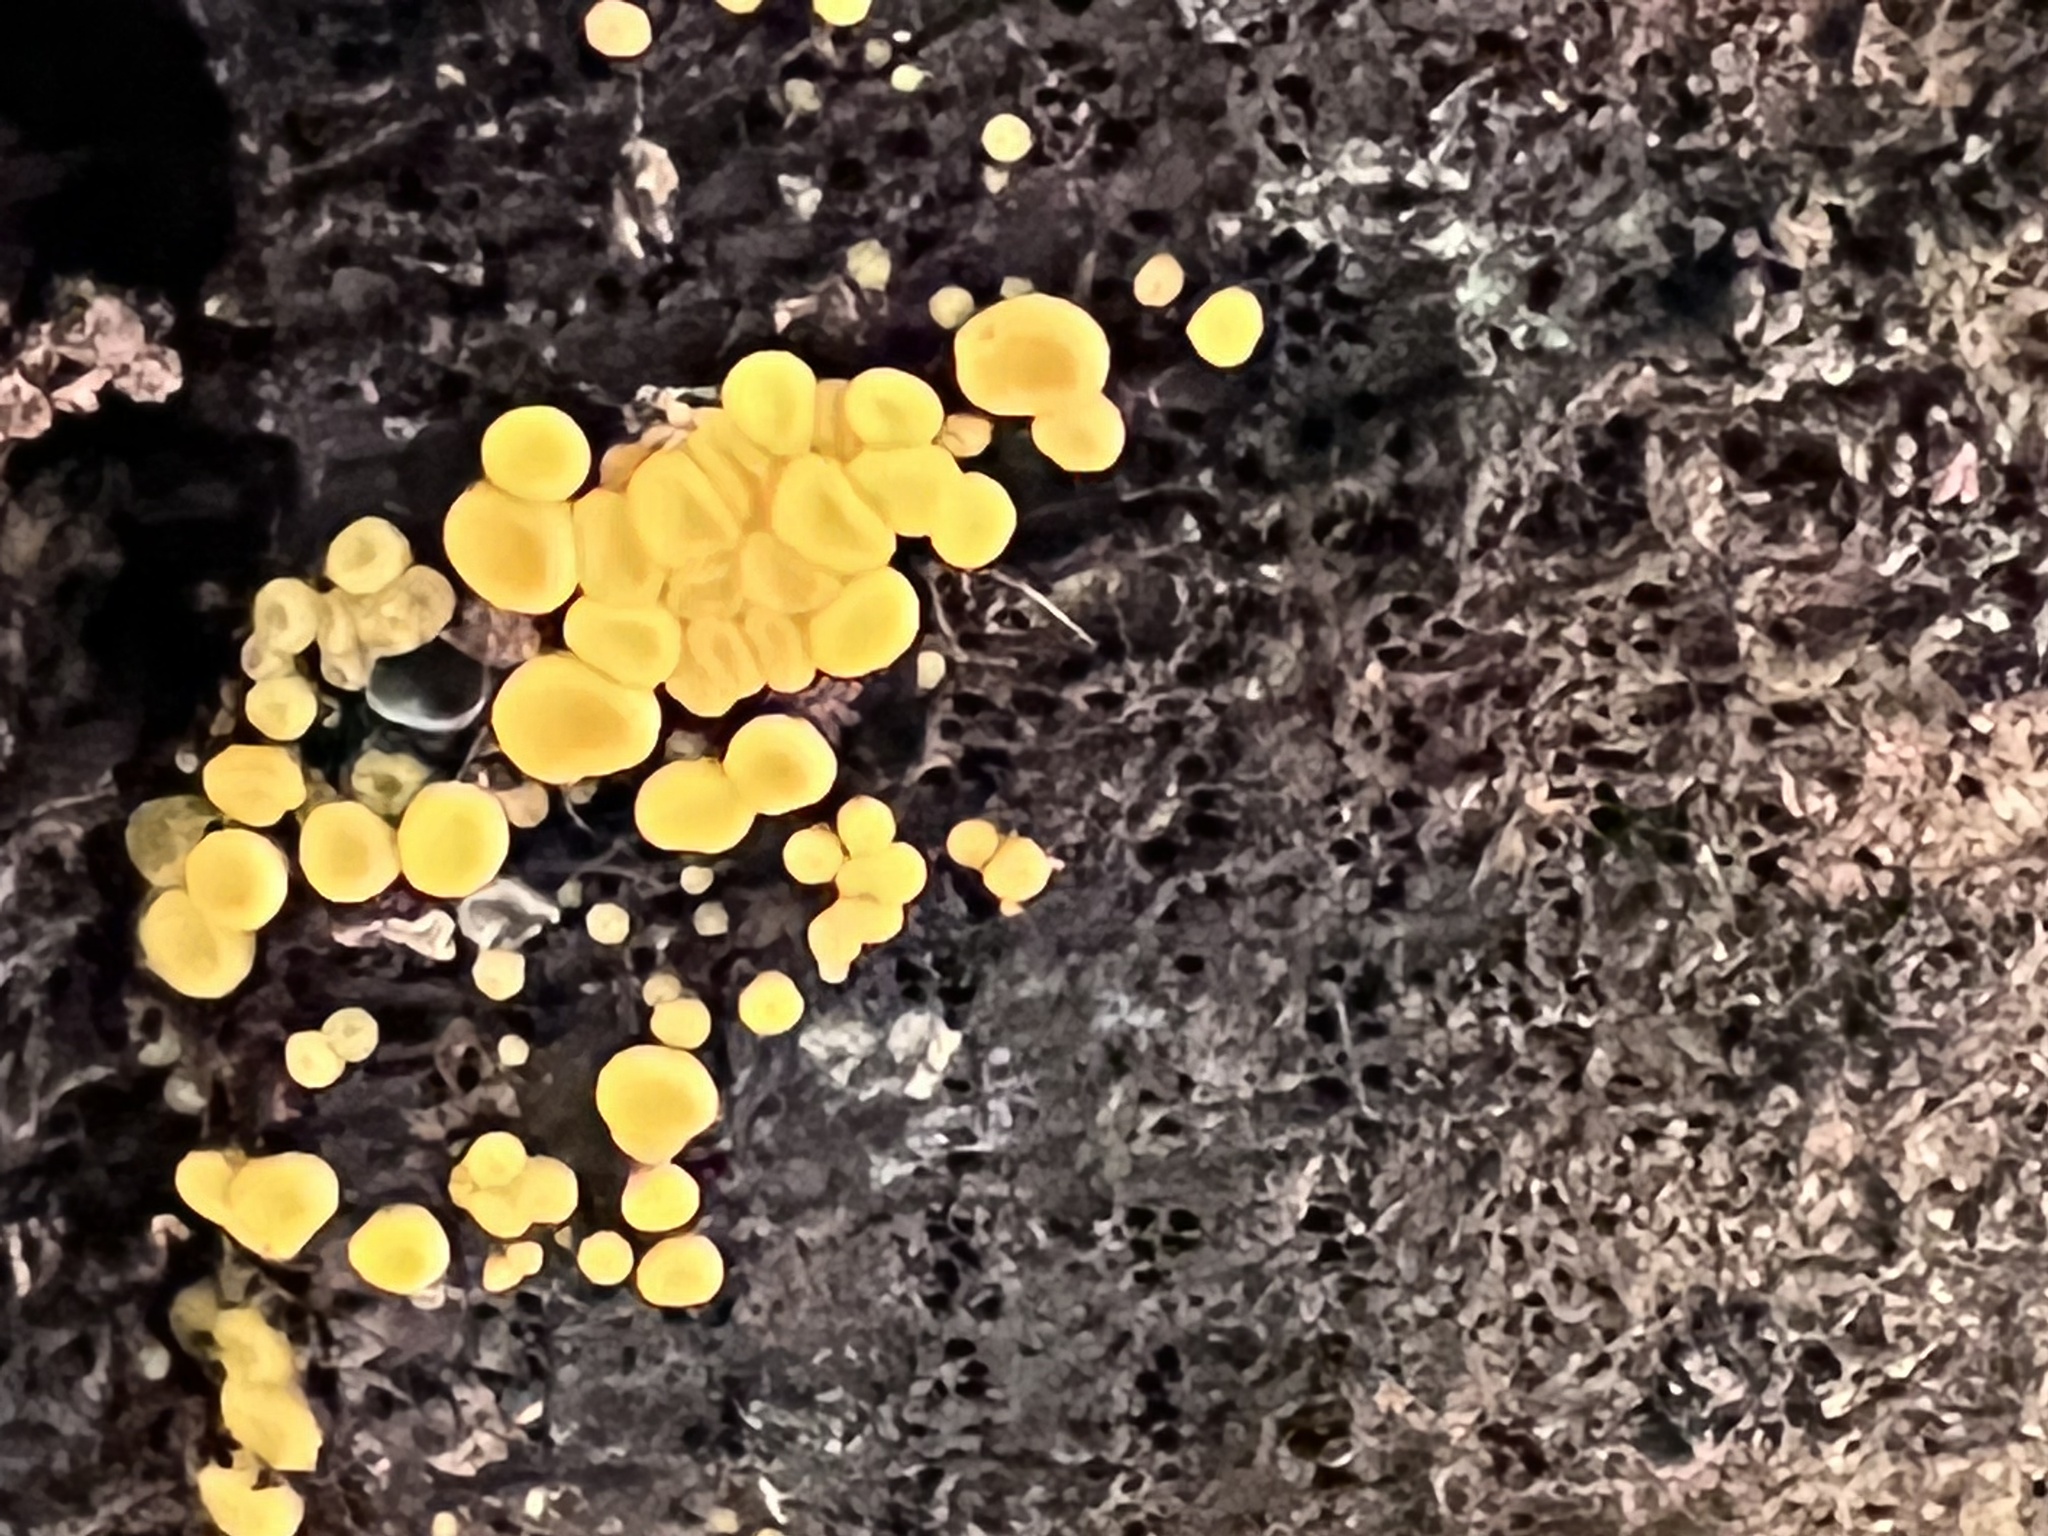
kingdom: Fungi
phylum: Ascomycota
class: Leotiomycetes
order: Helotiales
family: Pezizellaceae
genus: Calycina
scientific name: Calycina citrina
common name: Yellow fairy cups
